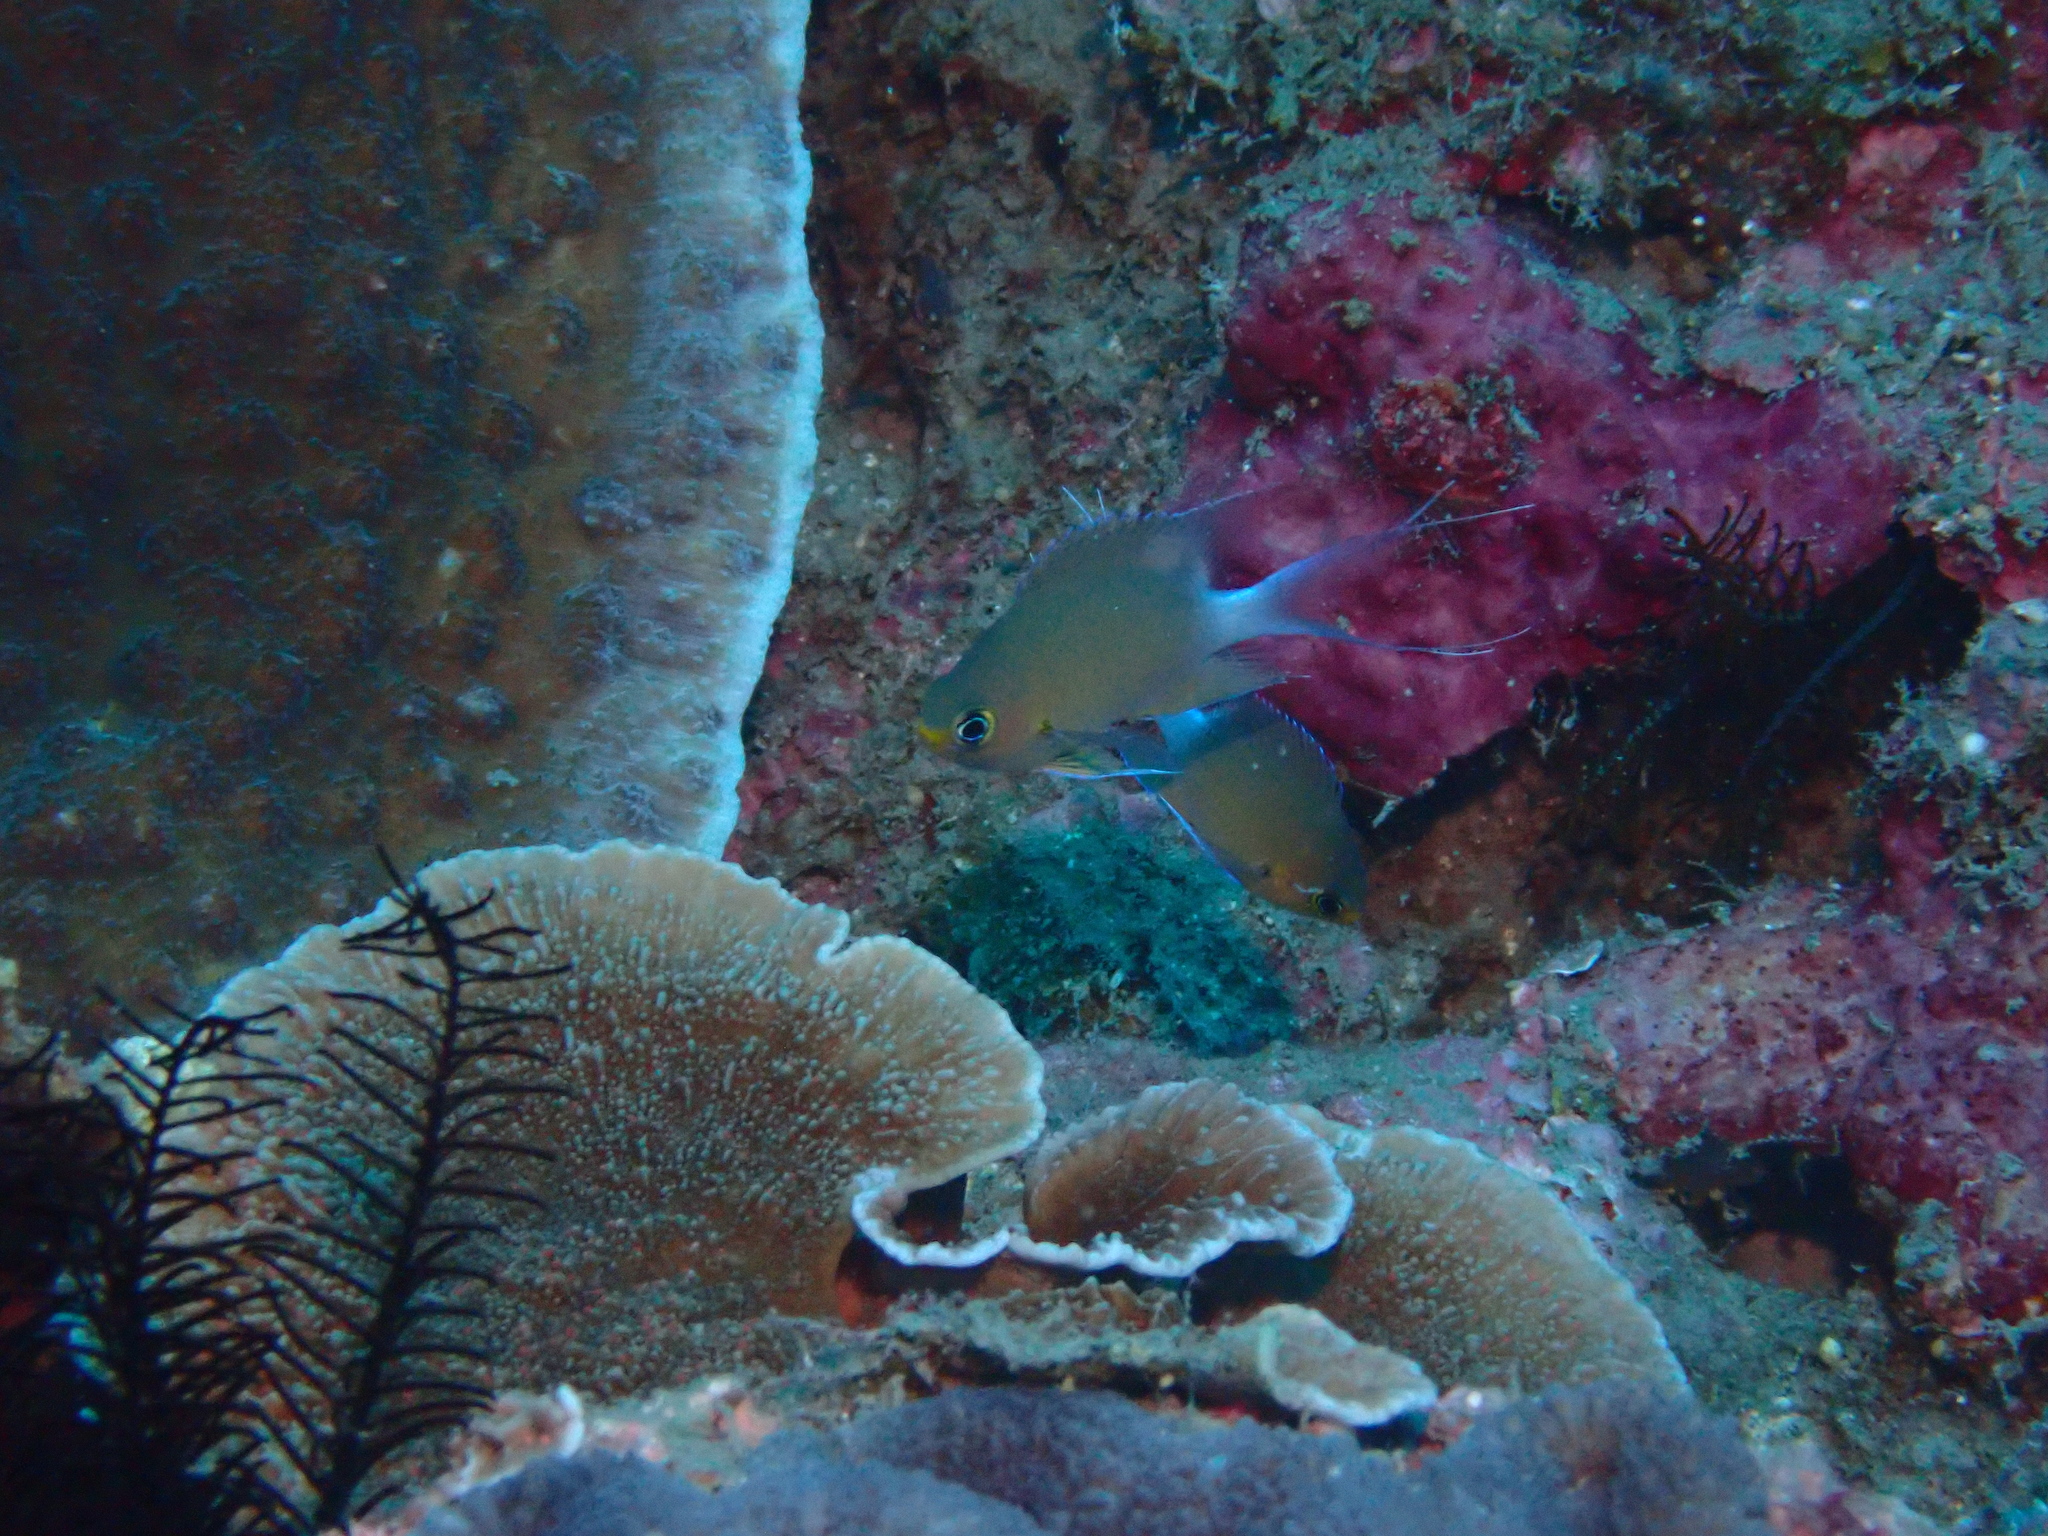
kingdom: Animalia
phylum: Chordata
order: Perciformes
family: Pomacentridae
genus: Chromis
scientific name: Chromis ovatiformes
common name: Ovate chromis
